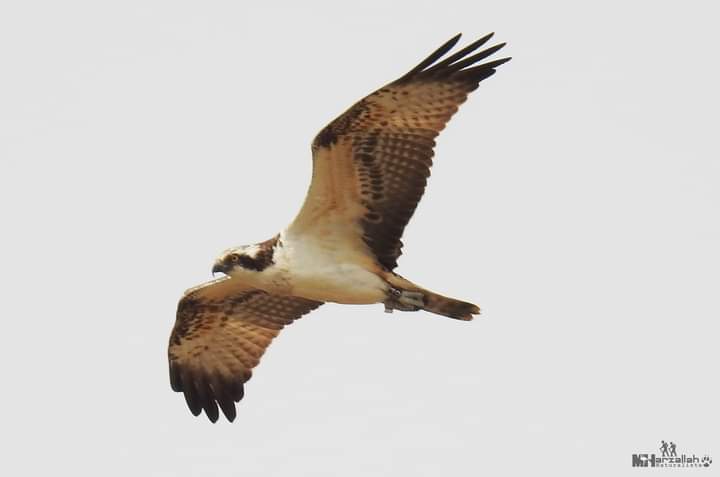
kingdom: Animalia
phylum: Chordata
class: Aves
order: Accipitriformes
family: Pandionidae
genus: Pandion
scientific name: Pandion haliaetus
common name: Osprey
